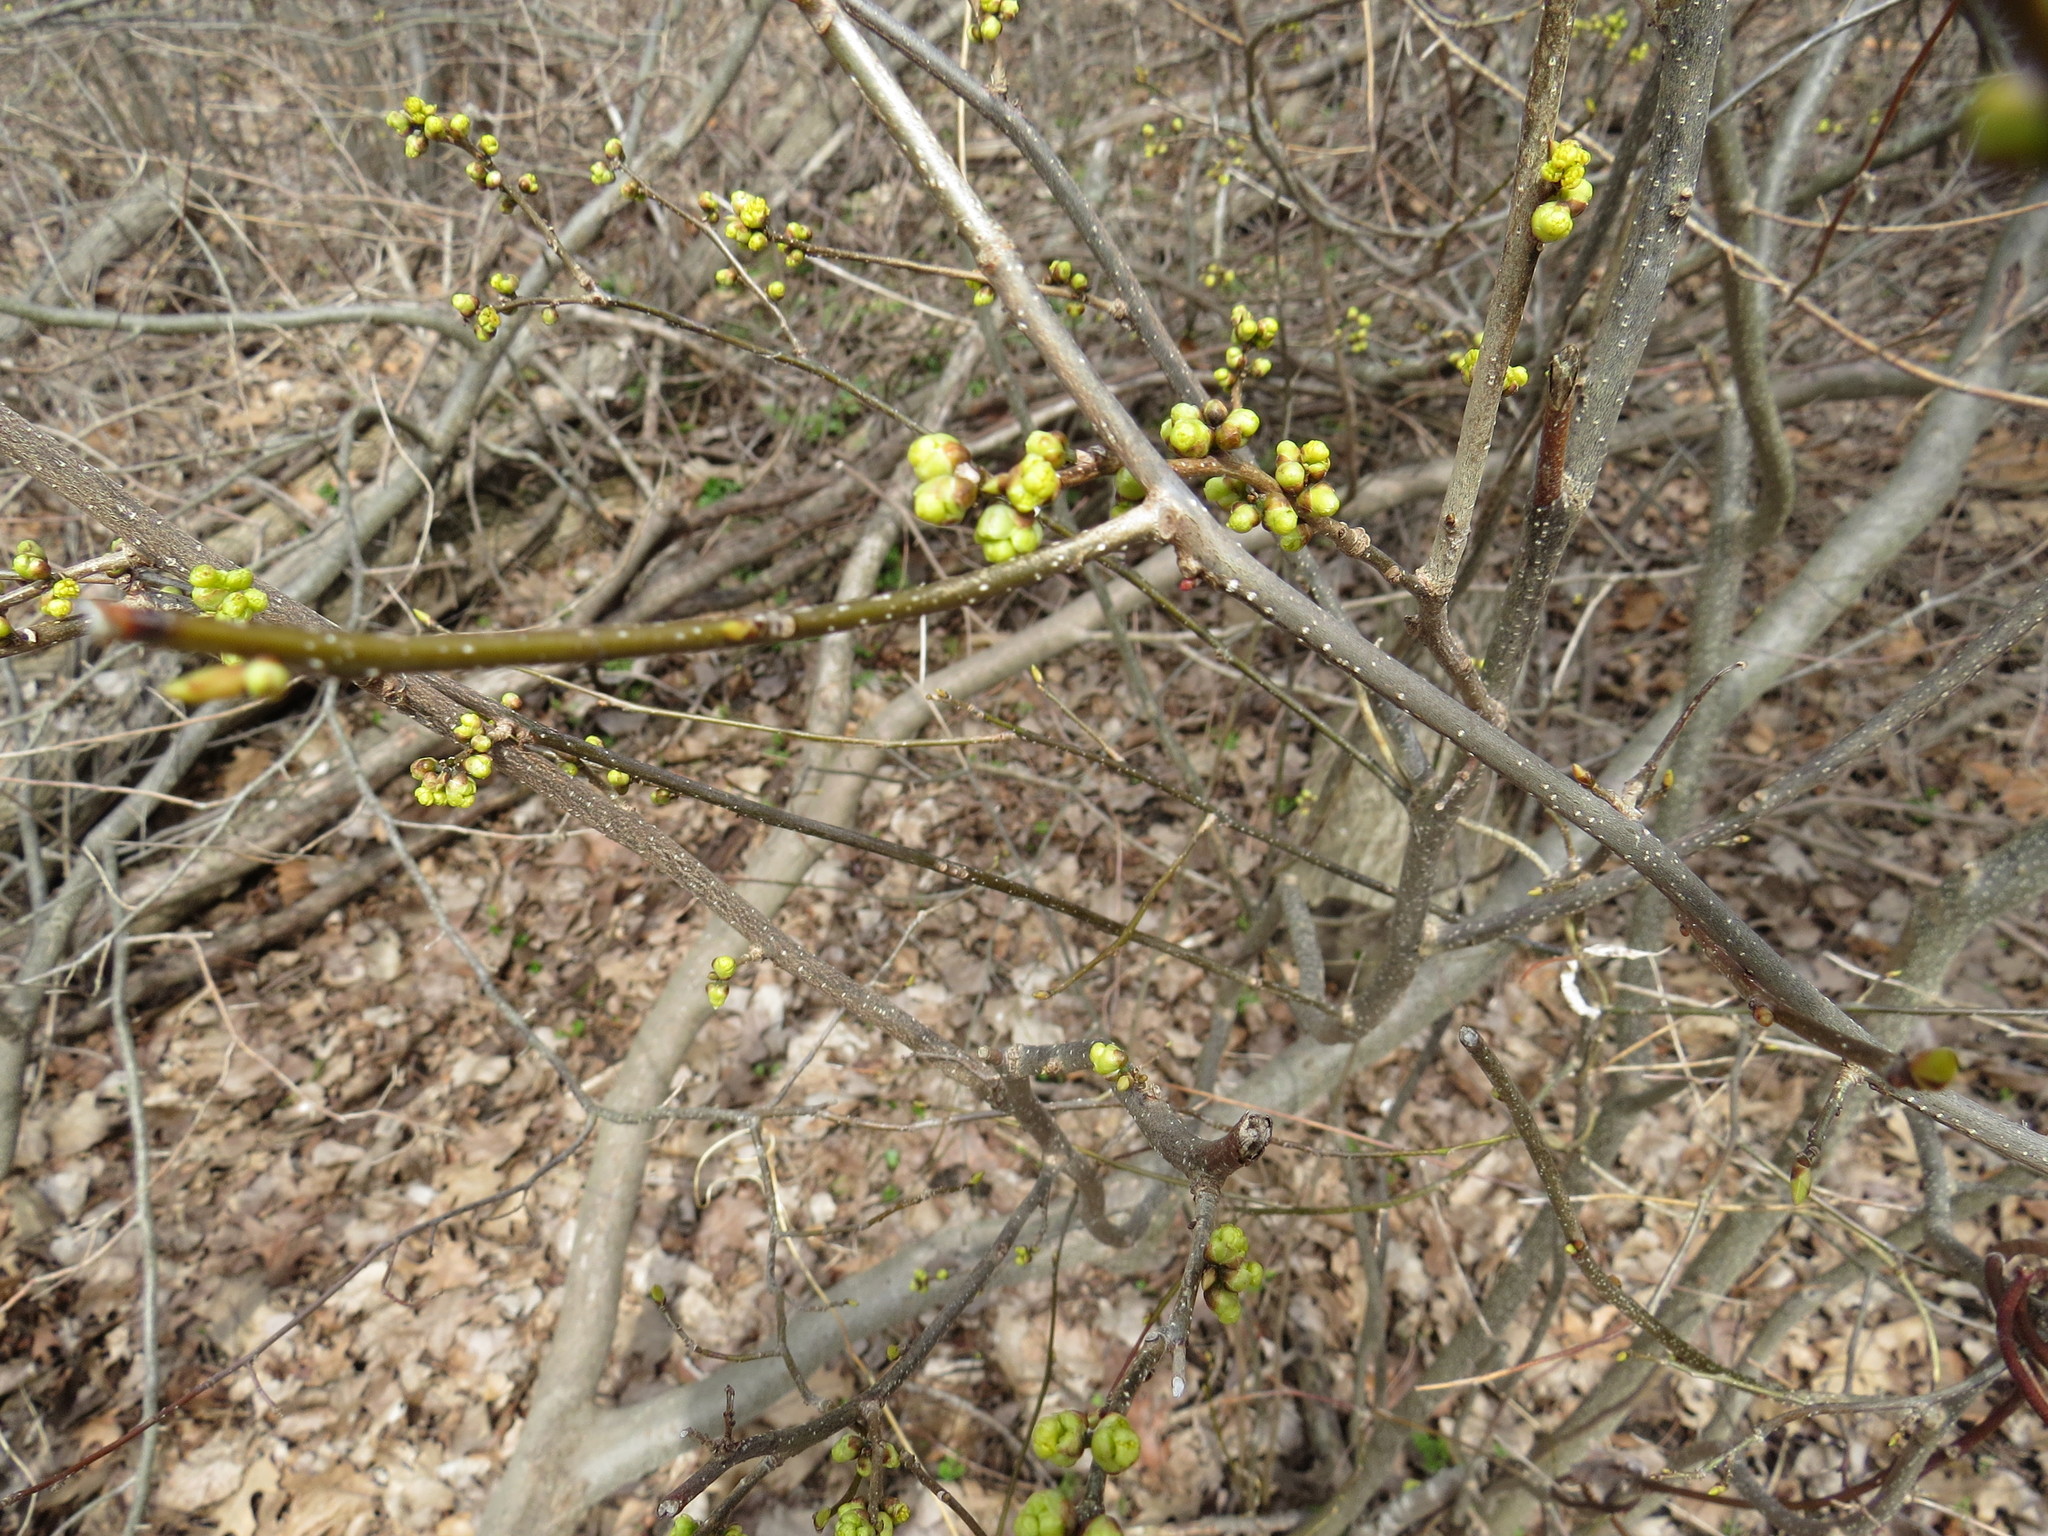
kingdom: Plantae
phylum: Tracheophyta
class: Magnoliopsida
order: Laurales
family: Lauraceae
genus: Lindera
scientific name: Lindera benzoin
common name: Spicebush
